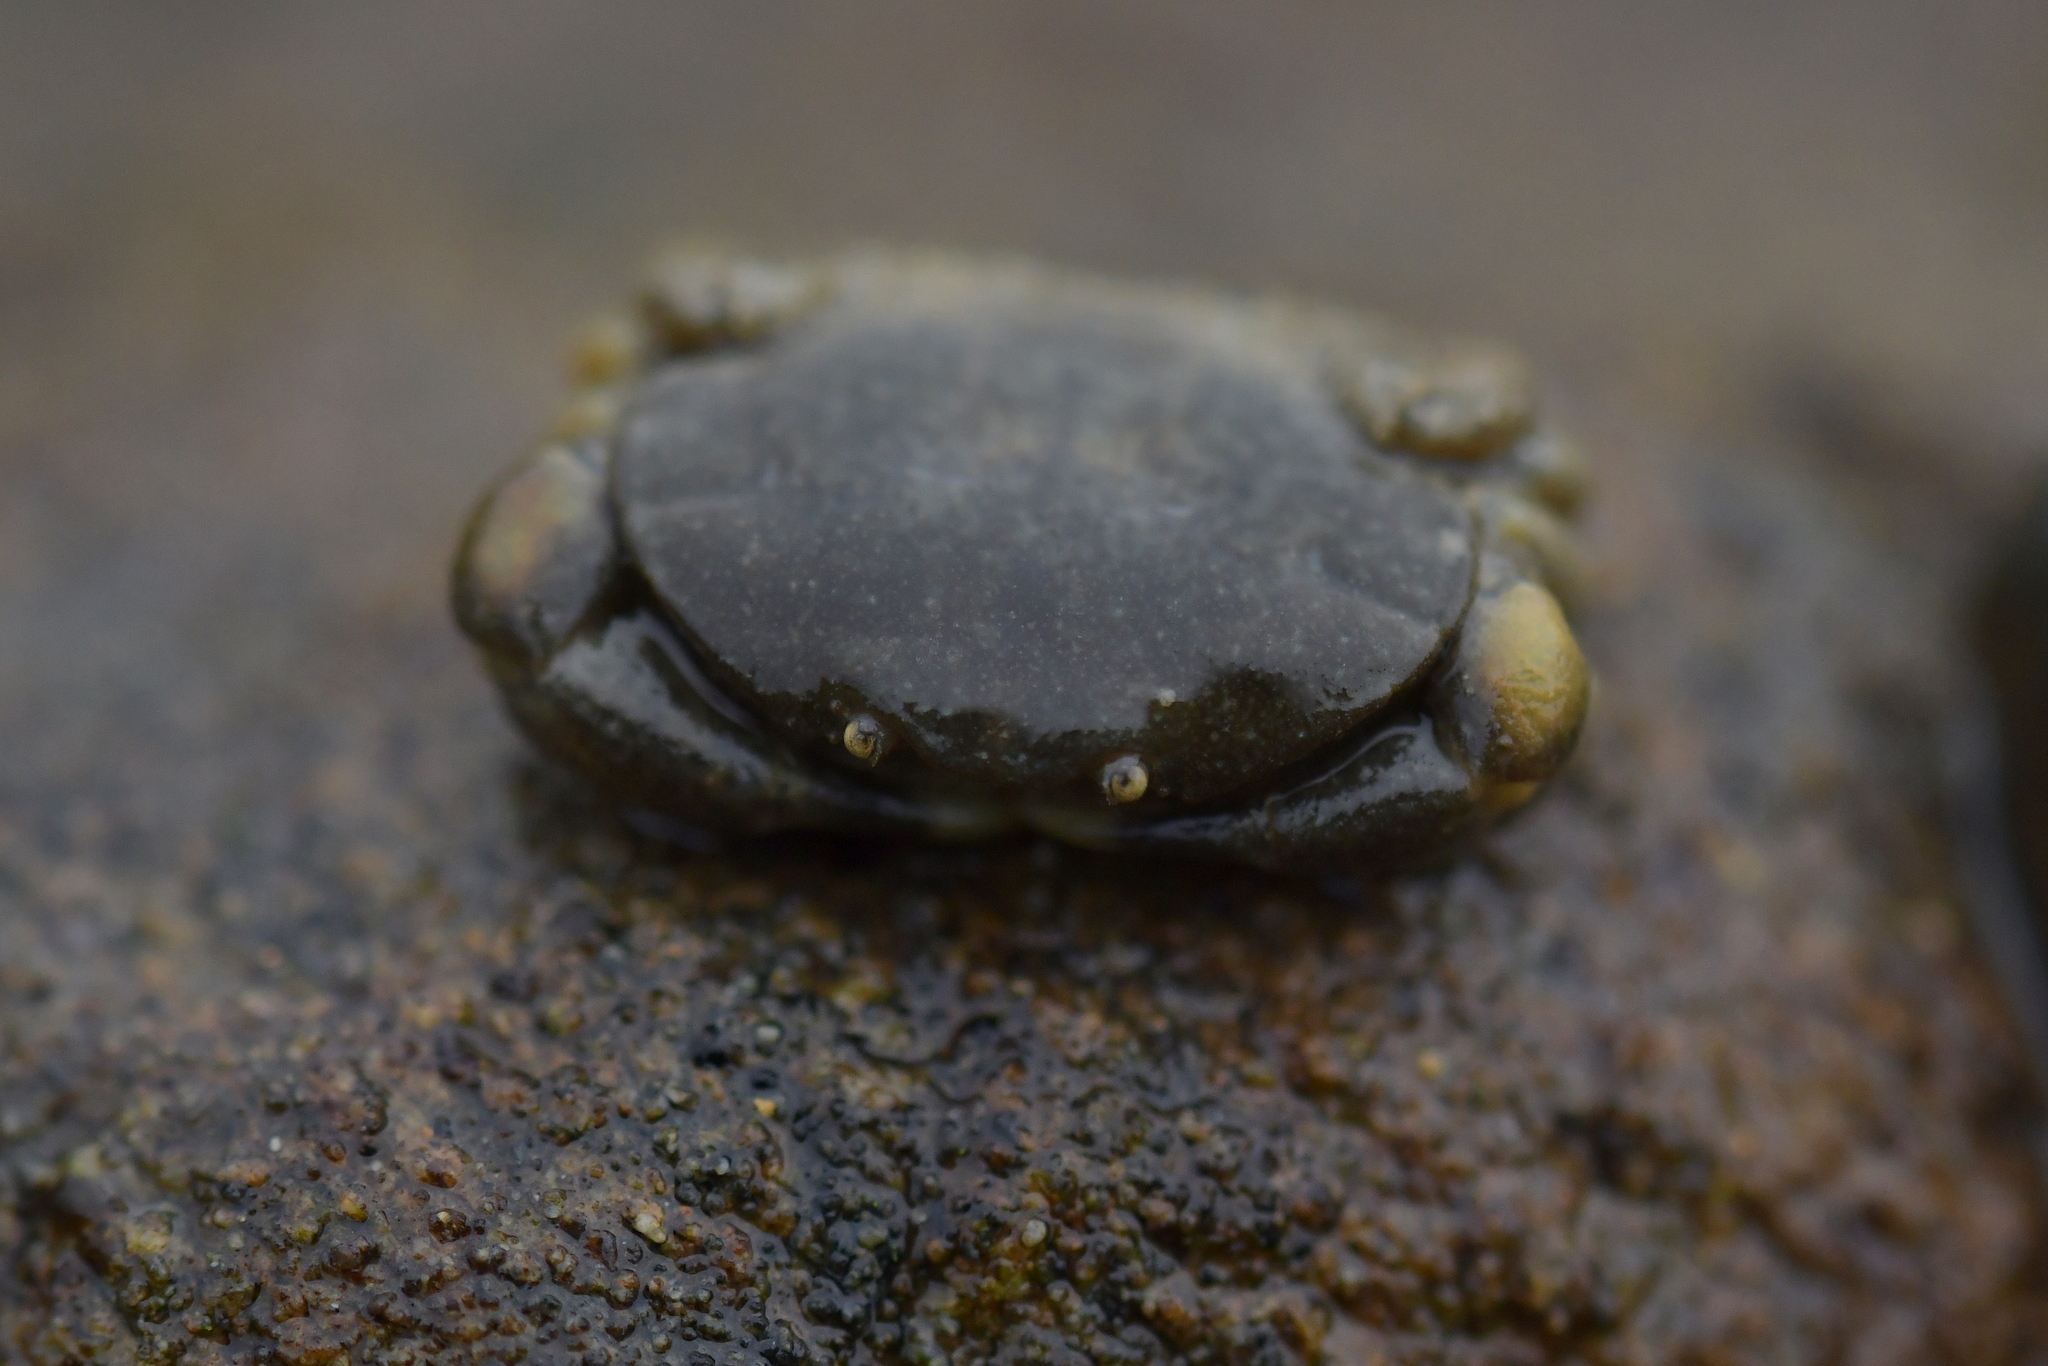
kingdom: Animalia
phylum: Arthropoda
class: Malacostraca
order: Decapoda
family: Heteroziidae
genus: Heterozius
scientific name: Heterozius rotundifrons
